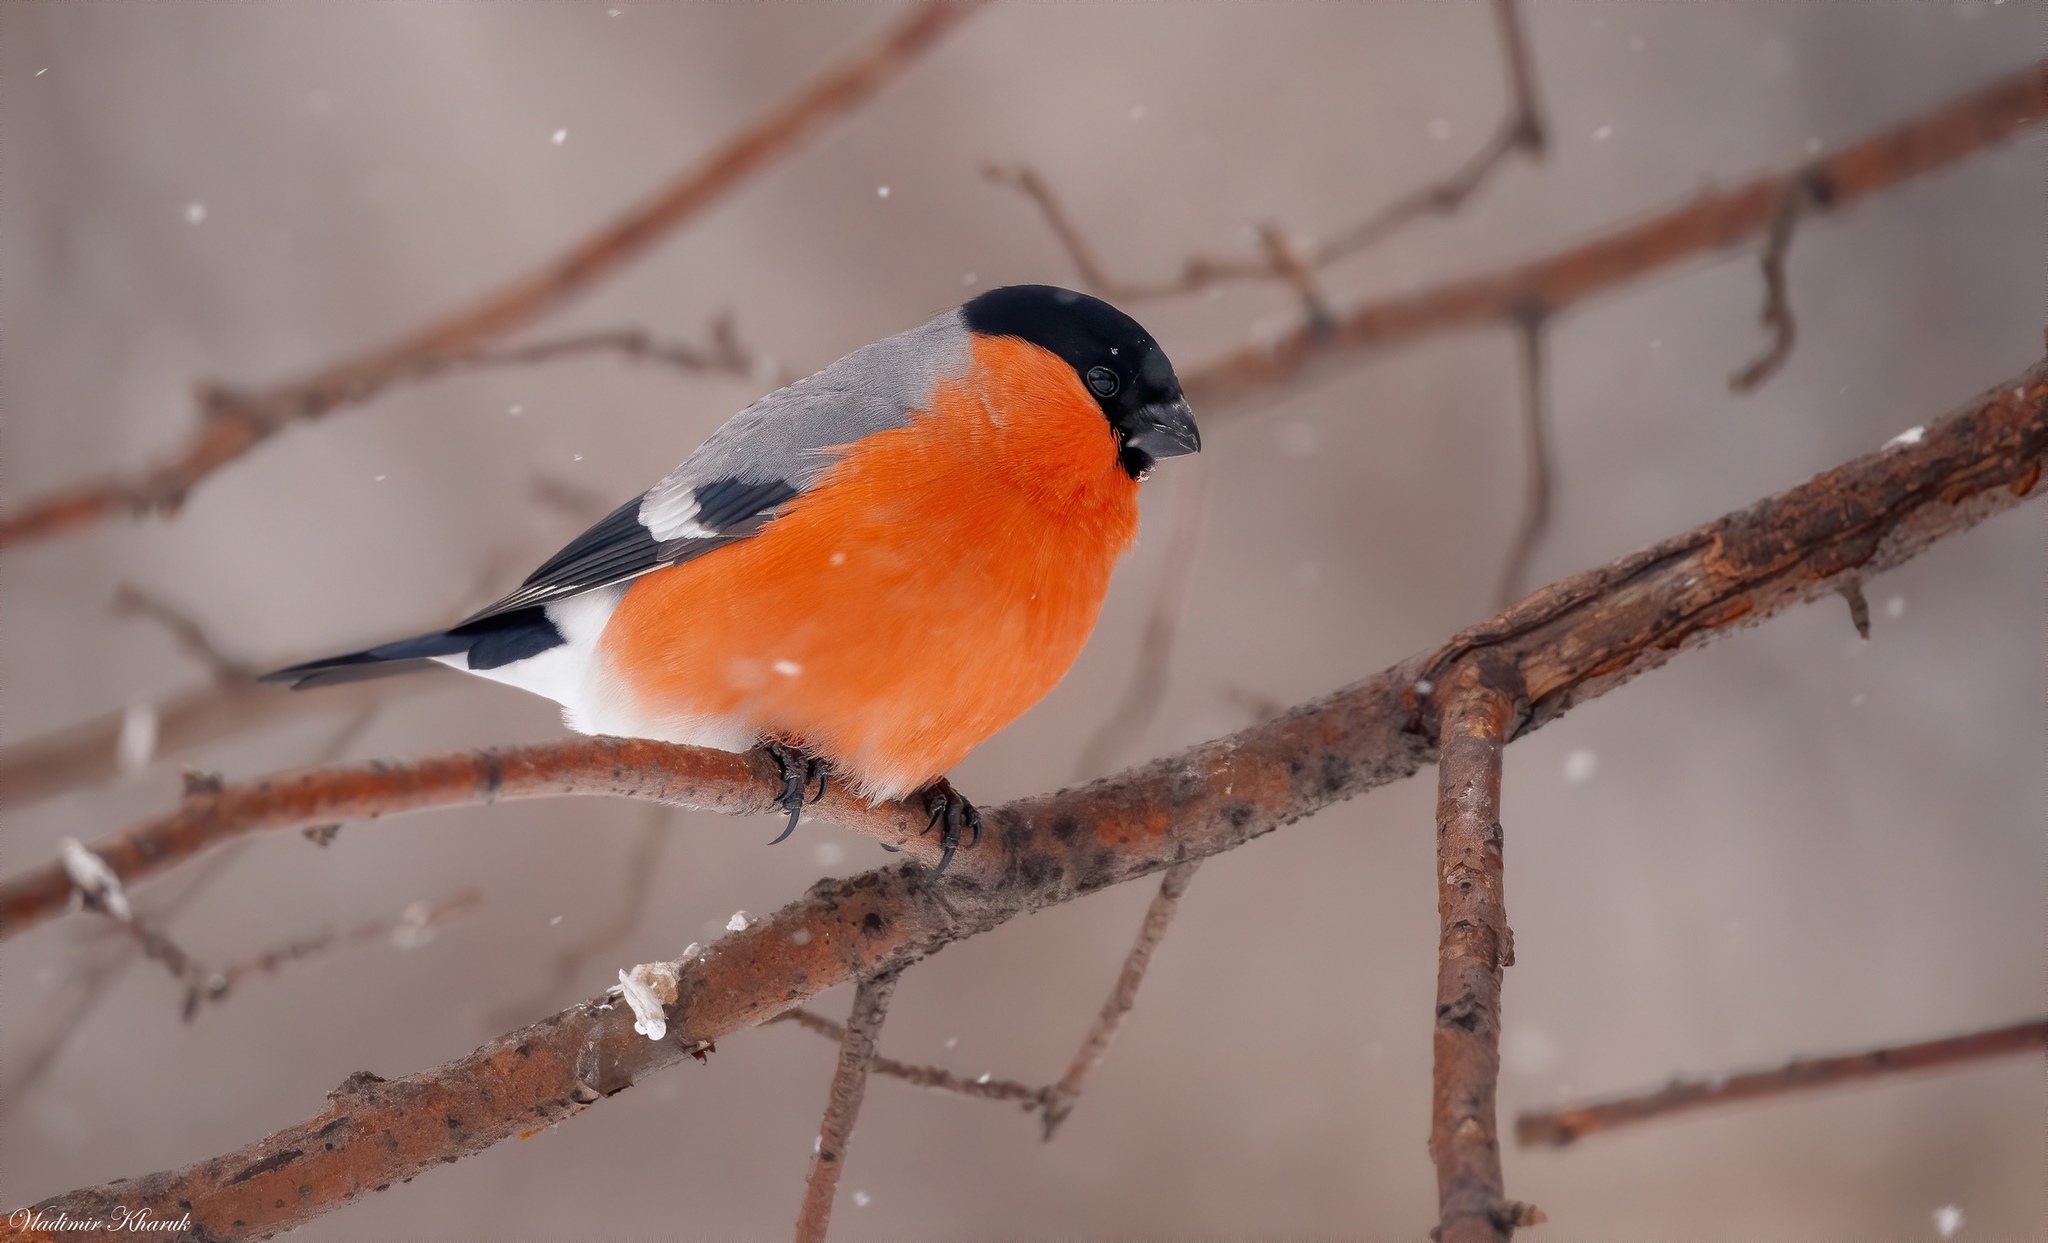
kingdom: Animalia
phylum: Chordata
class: Aves
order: Passeriformes
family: Fringillidae
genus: Pyrrhula
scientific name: Pyrrhula pyrrhula
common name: Eurasian bullfinch
